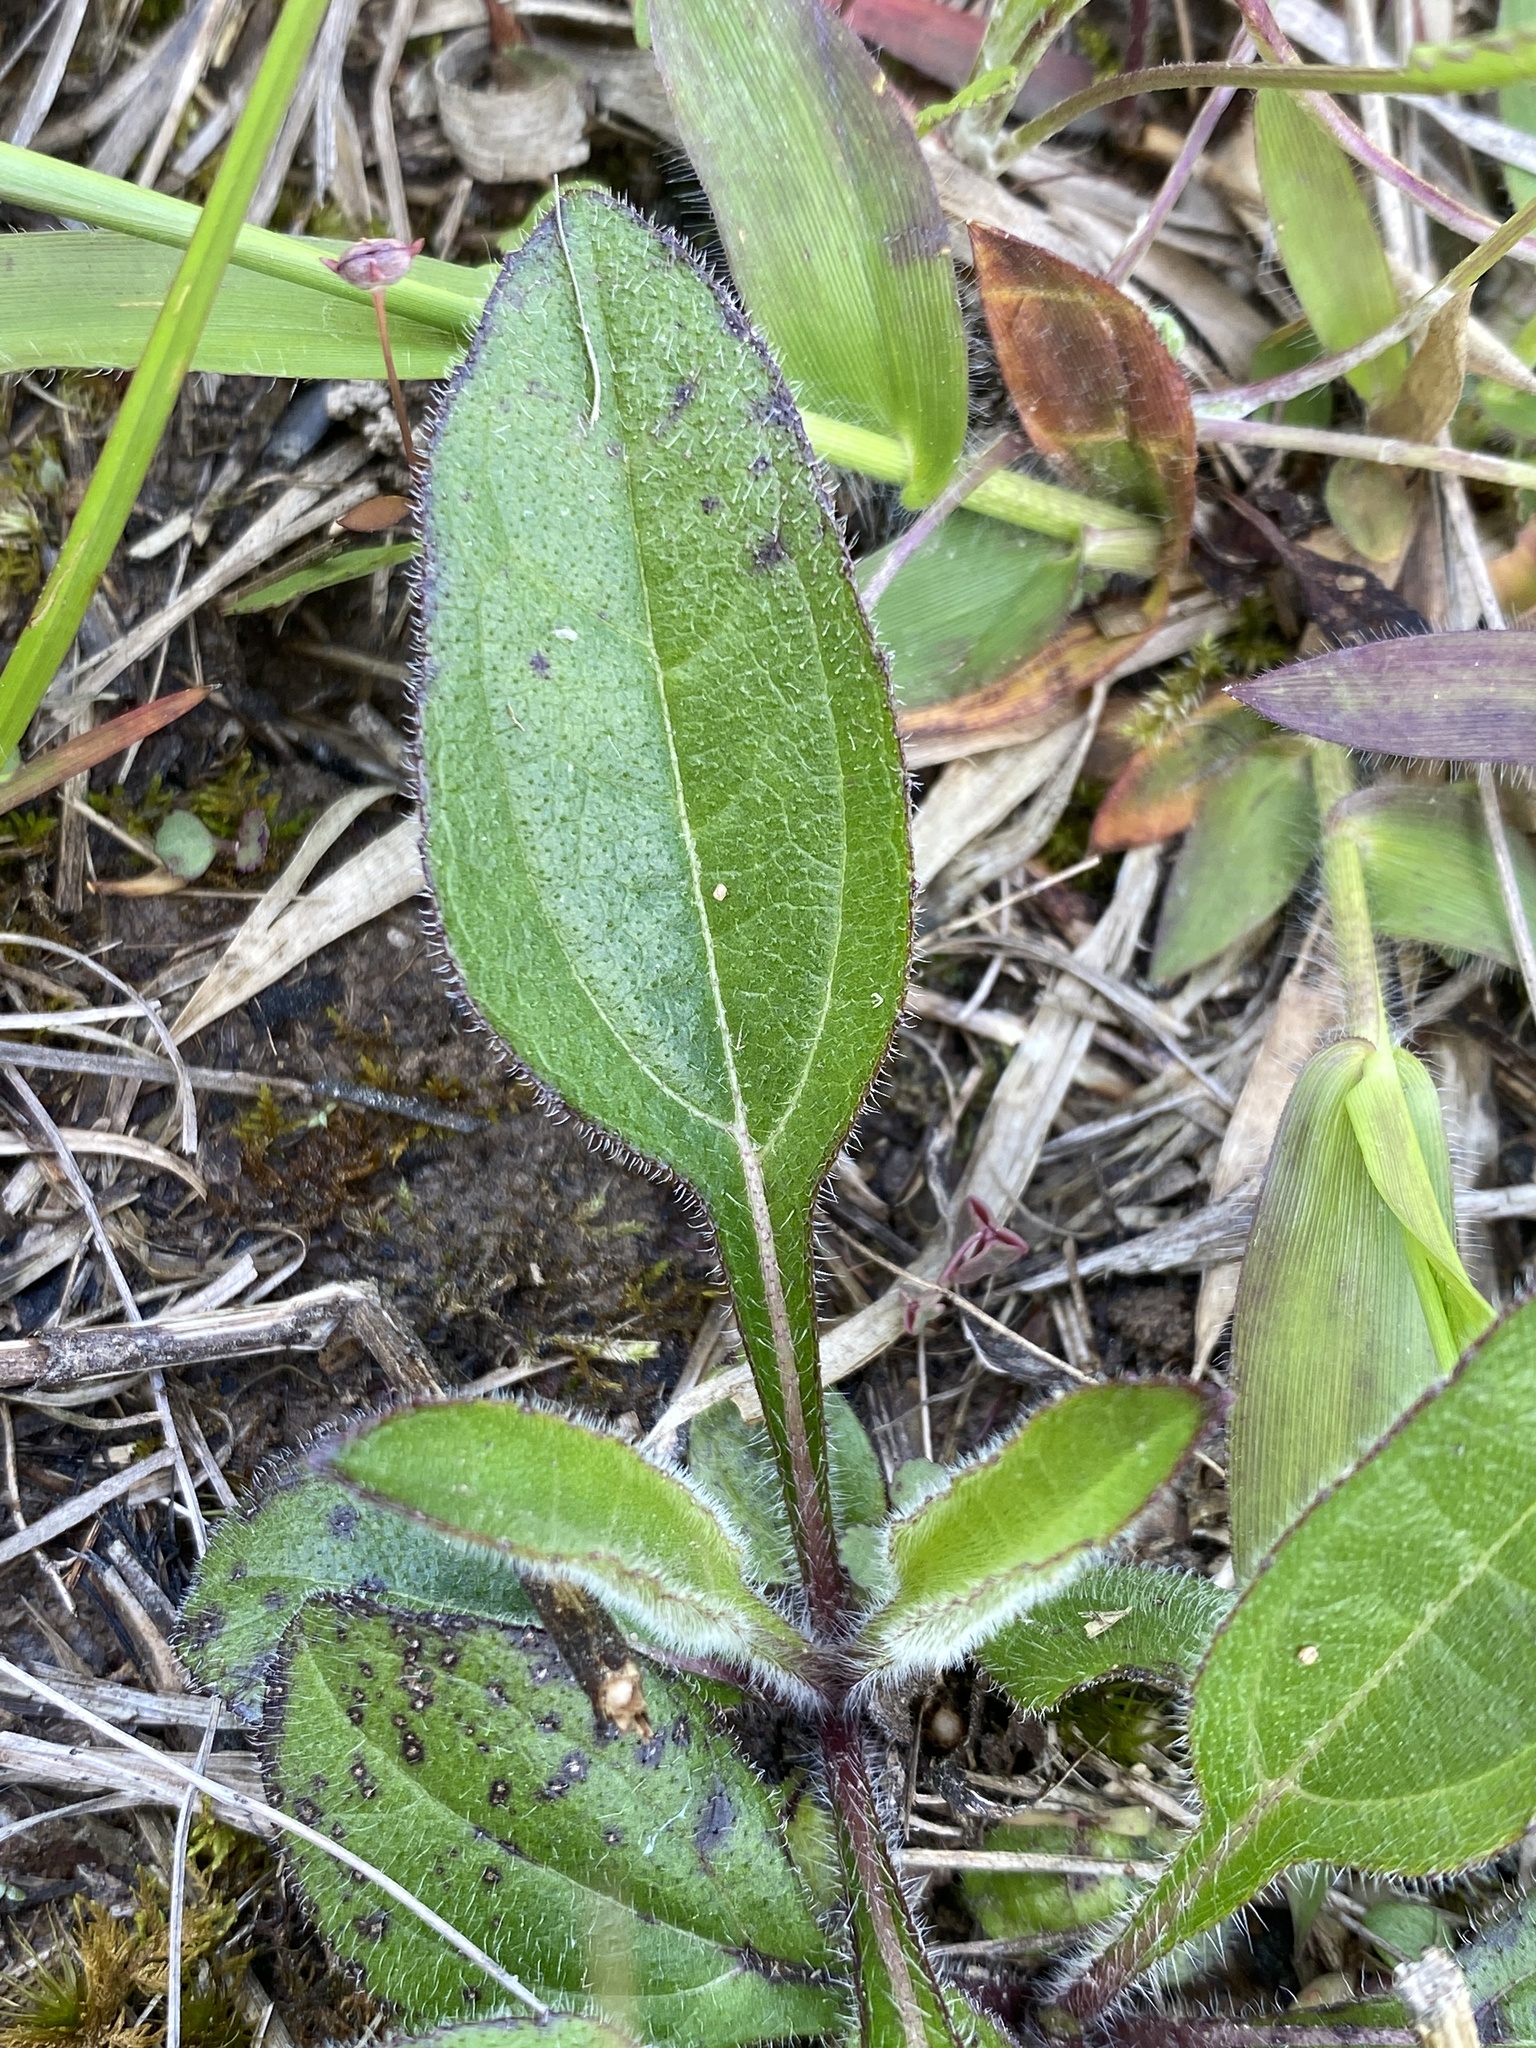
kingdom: Plantae
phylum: Tracheophyta
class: Magnoliopsida
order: Asterales
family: Asteraceae
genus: Helianthus
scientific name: Helianthus atrorubens
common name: Dark-eyed sunflower
